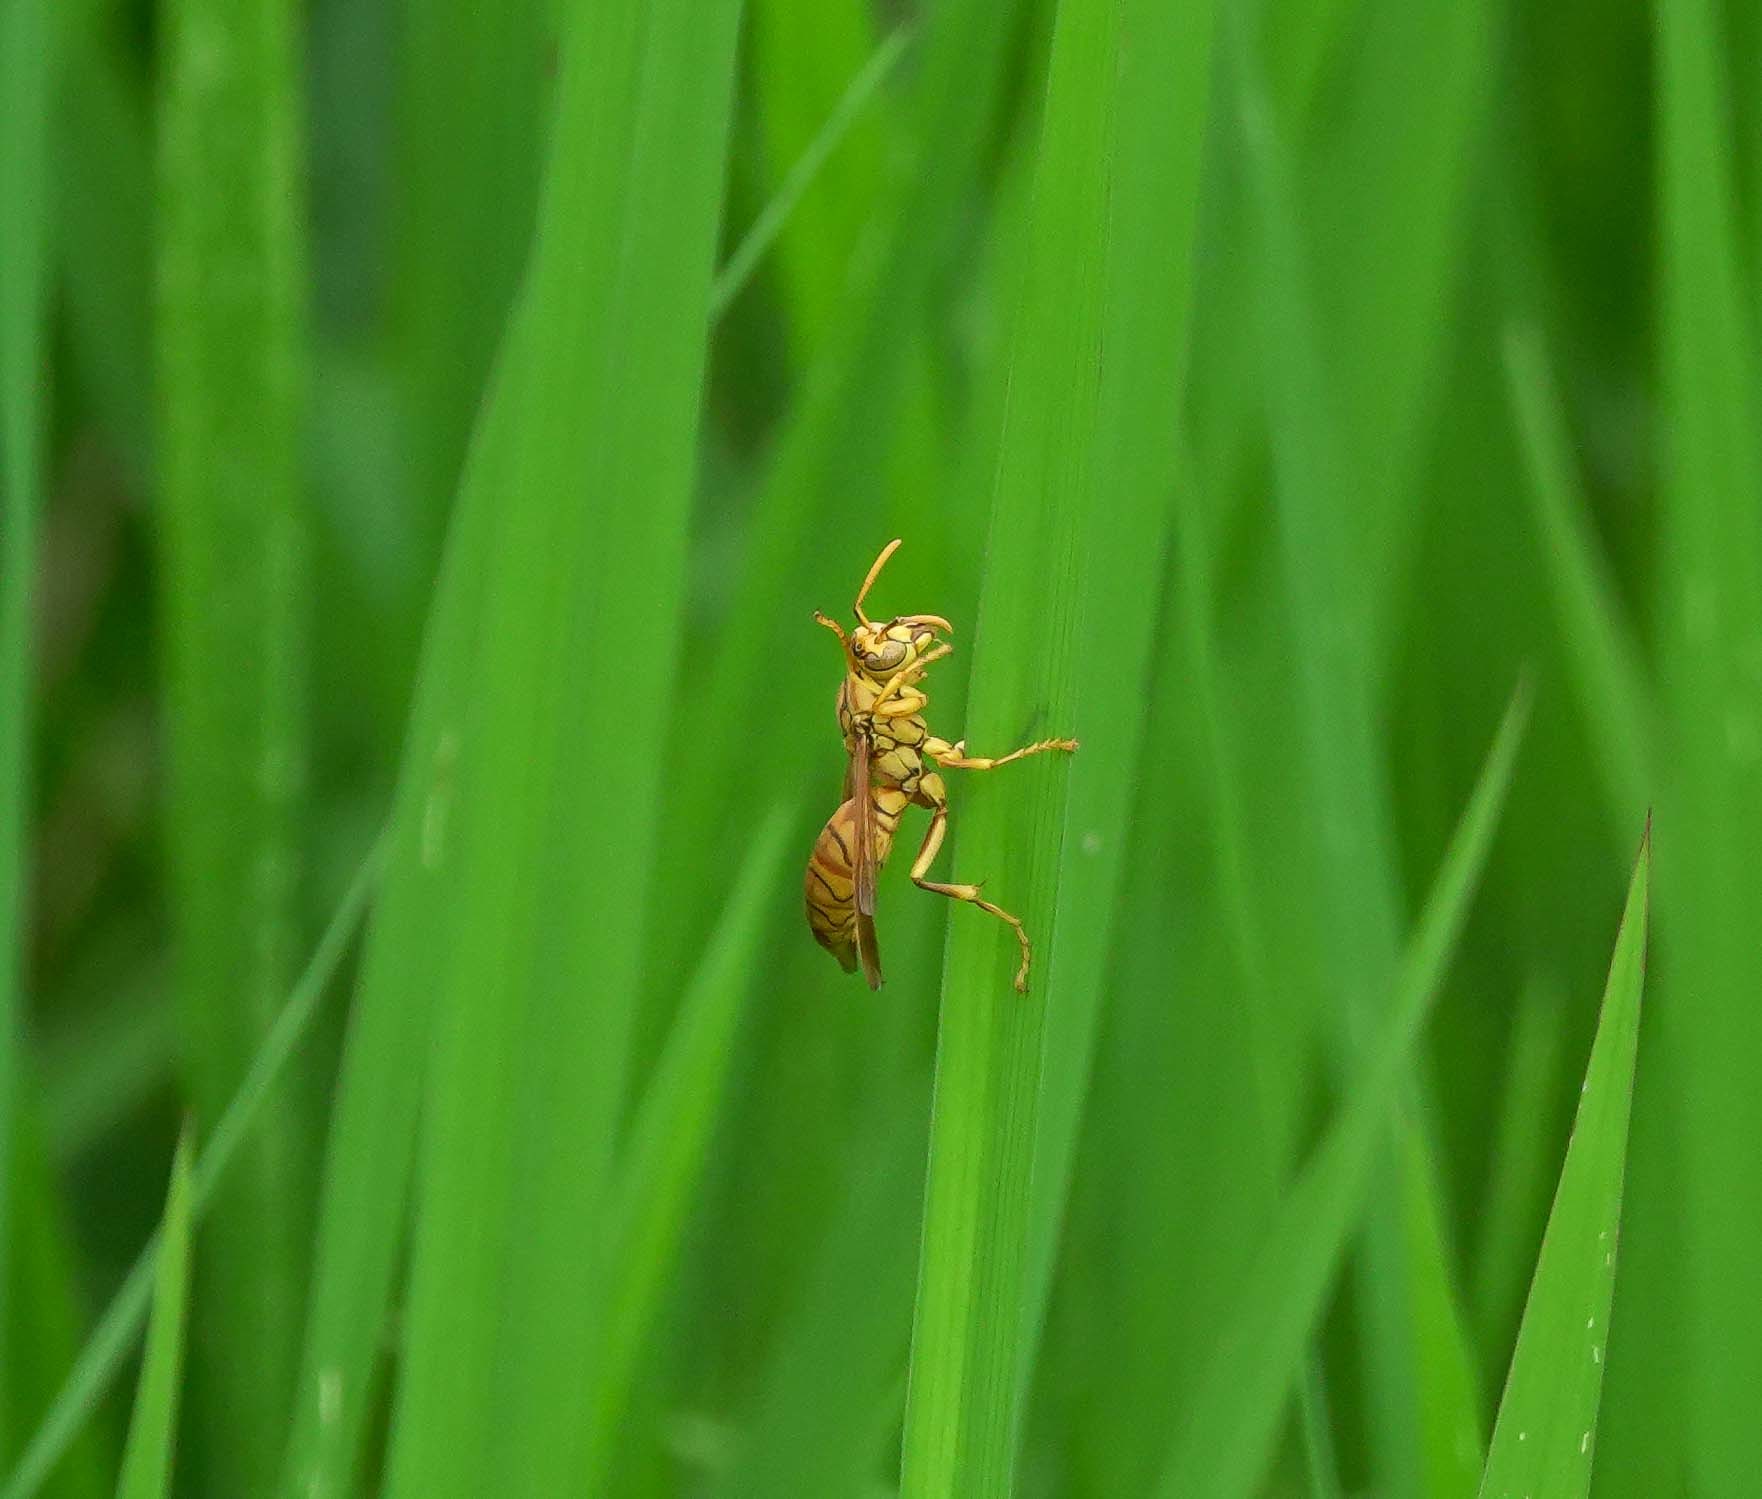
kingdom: Animalia
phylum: Arthropoda
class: Insecta
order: Hymenoptera
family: Eumenidae
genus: Polistes
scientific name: Polistes olivaceus
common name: Paper wasp
